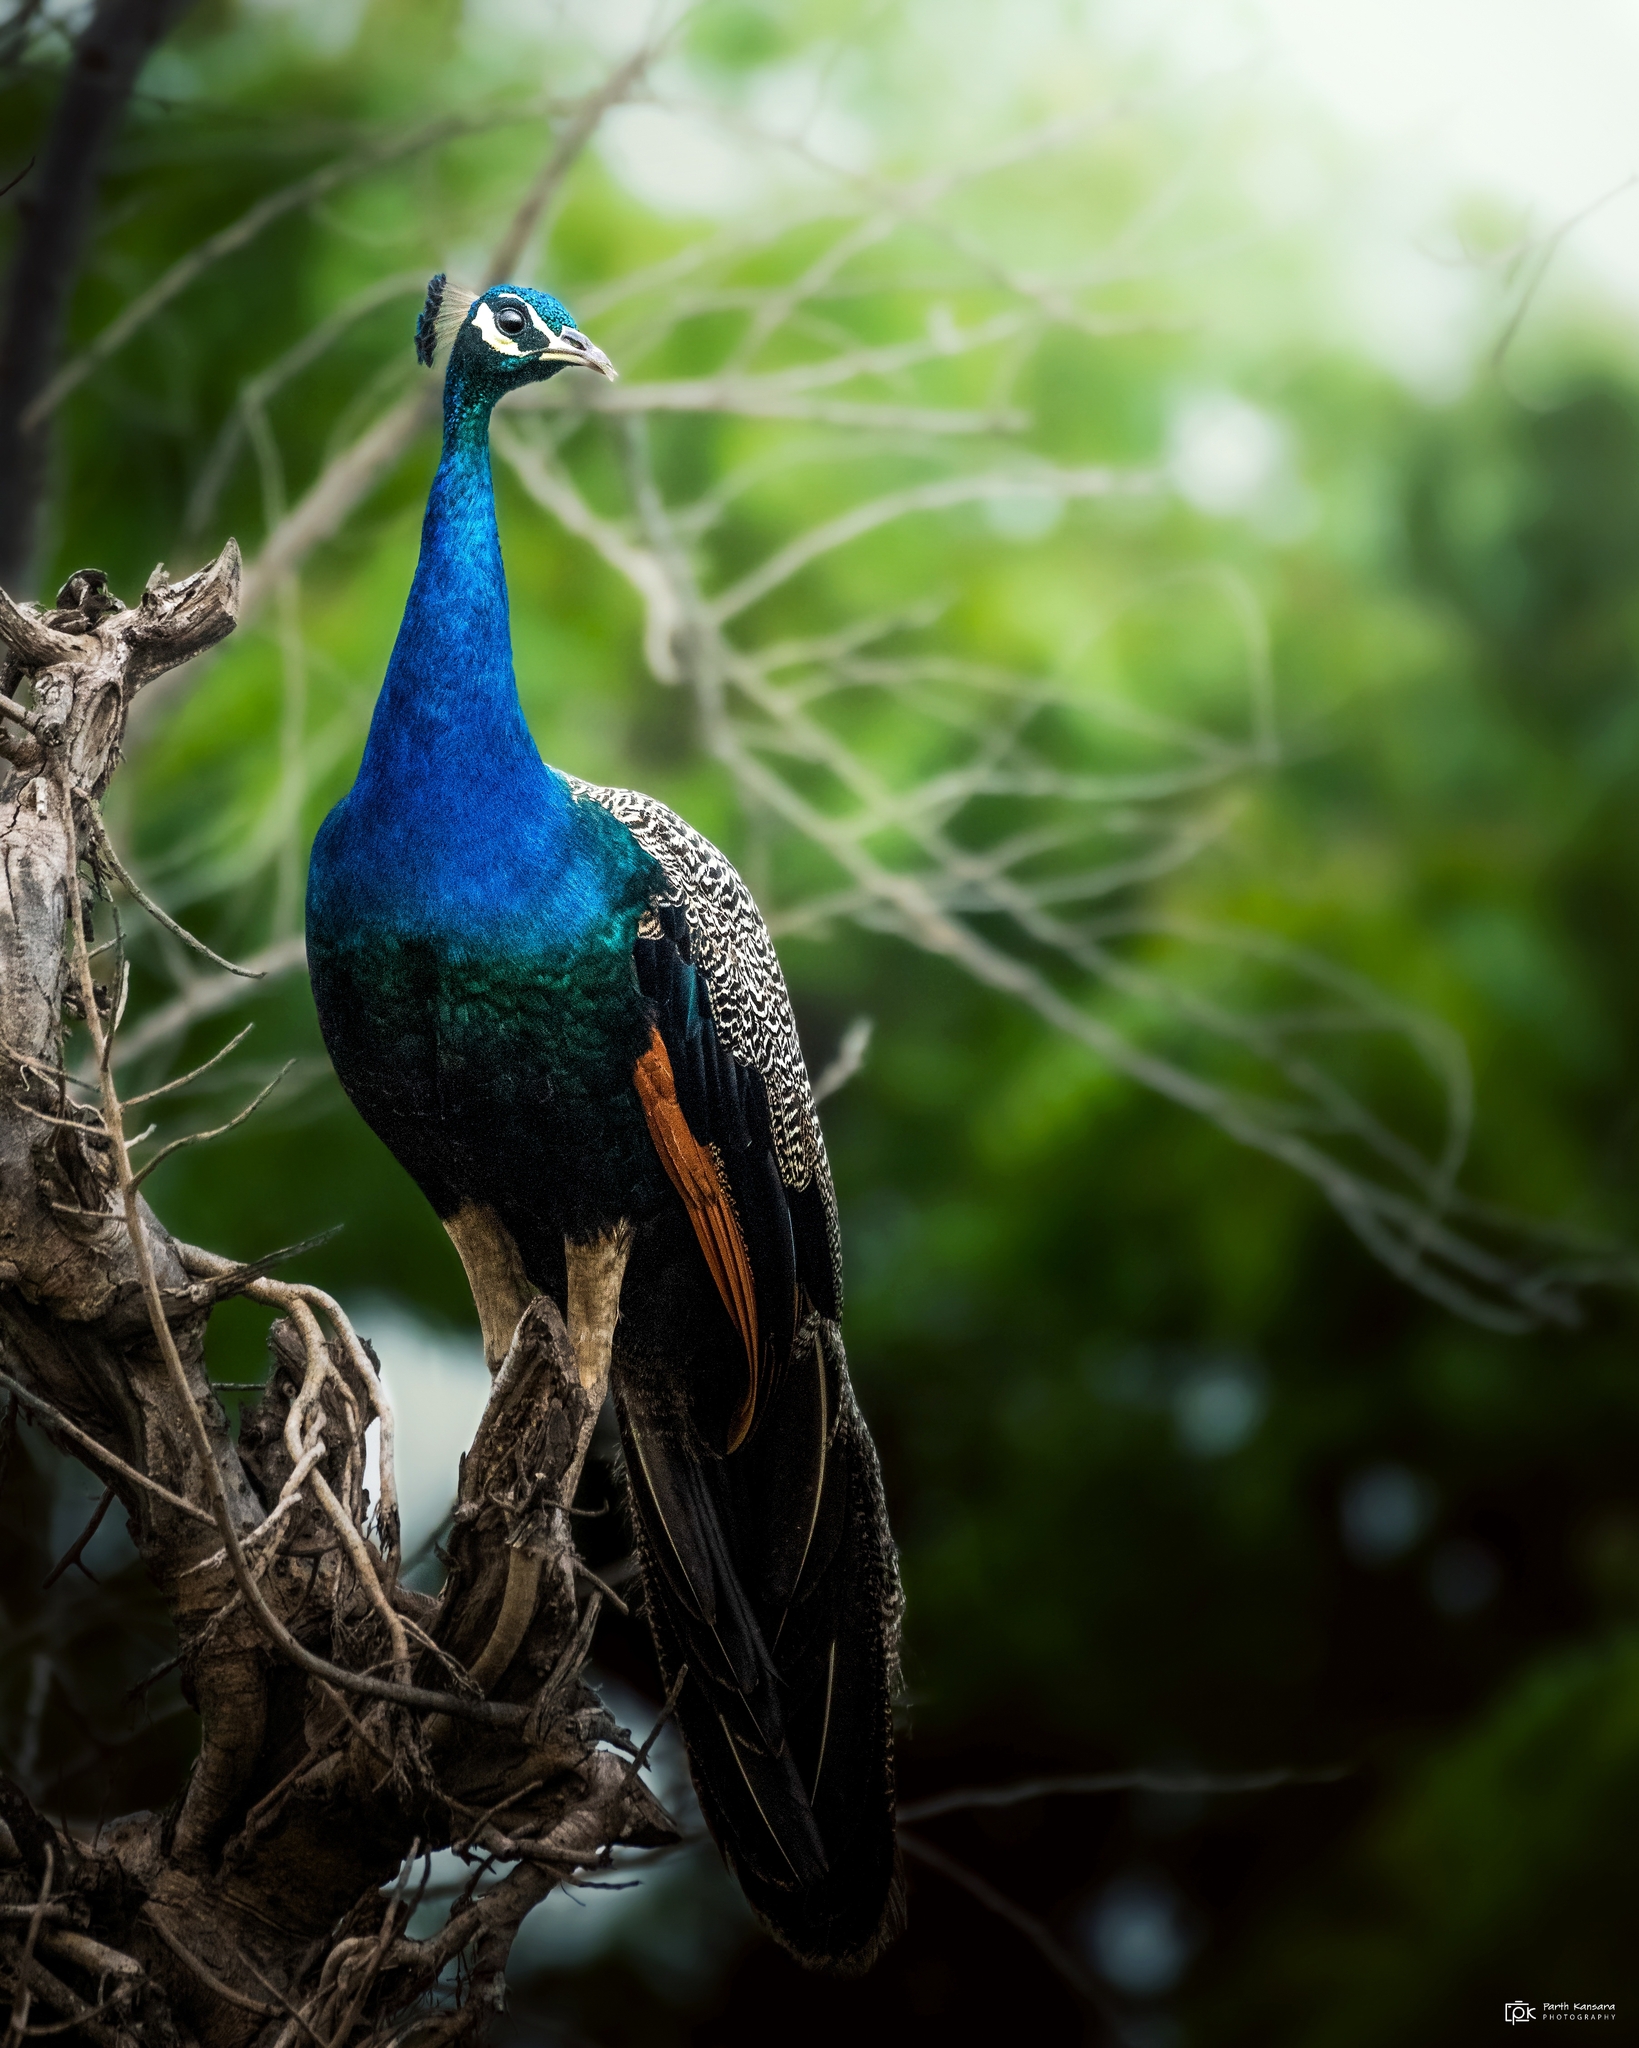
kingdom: Animalia
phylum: Chordata
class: Aves
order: Galliformes
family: Phasianidae
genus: Pavo
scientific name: Pavo cristatus
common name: Indian peafowl
